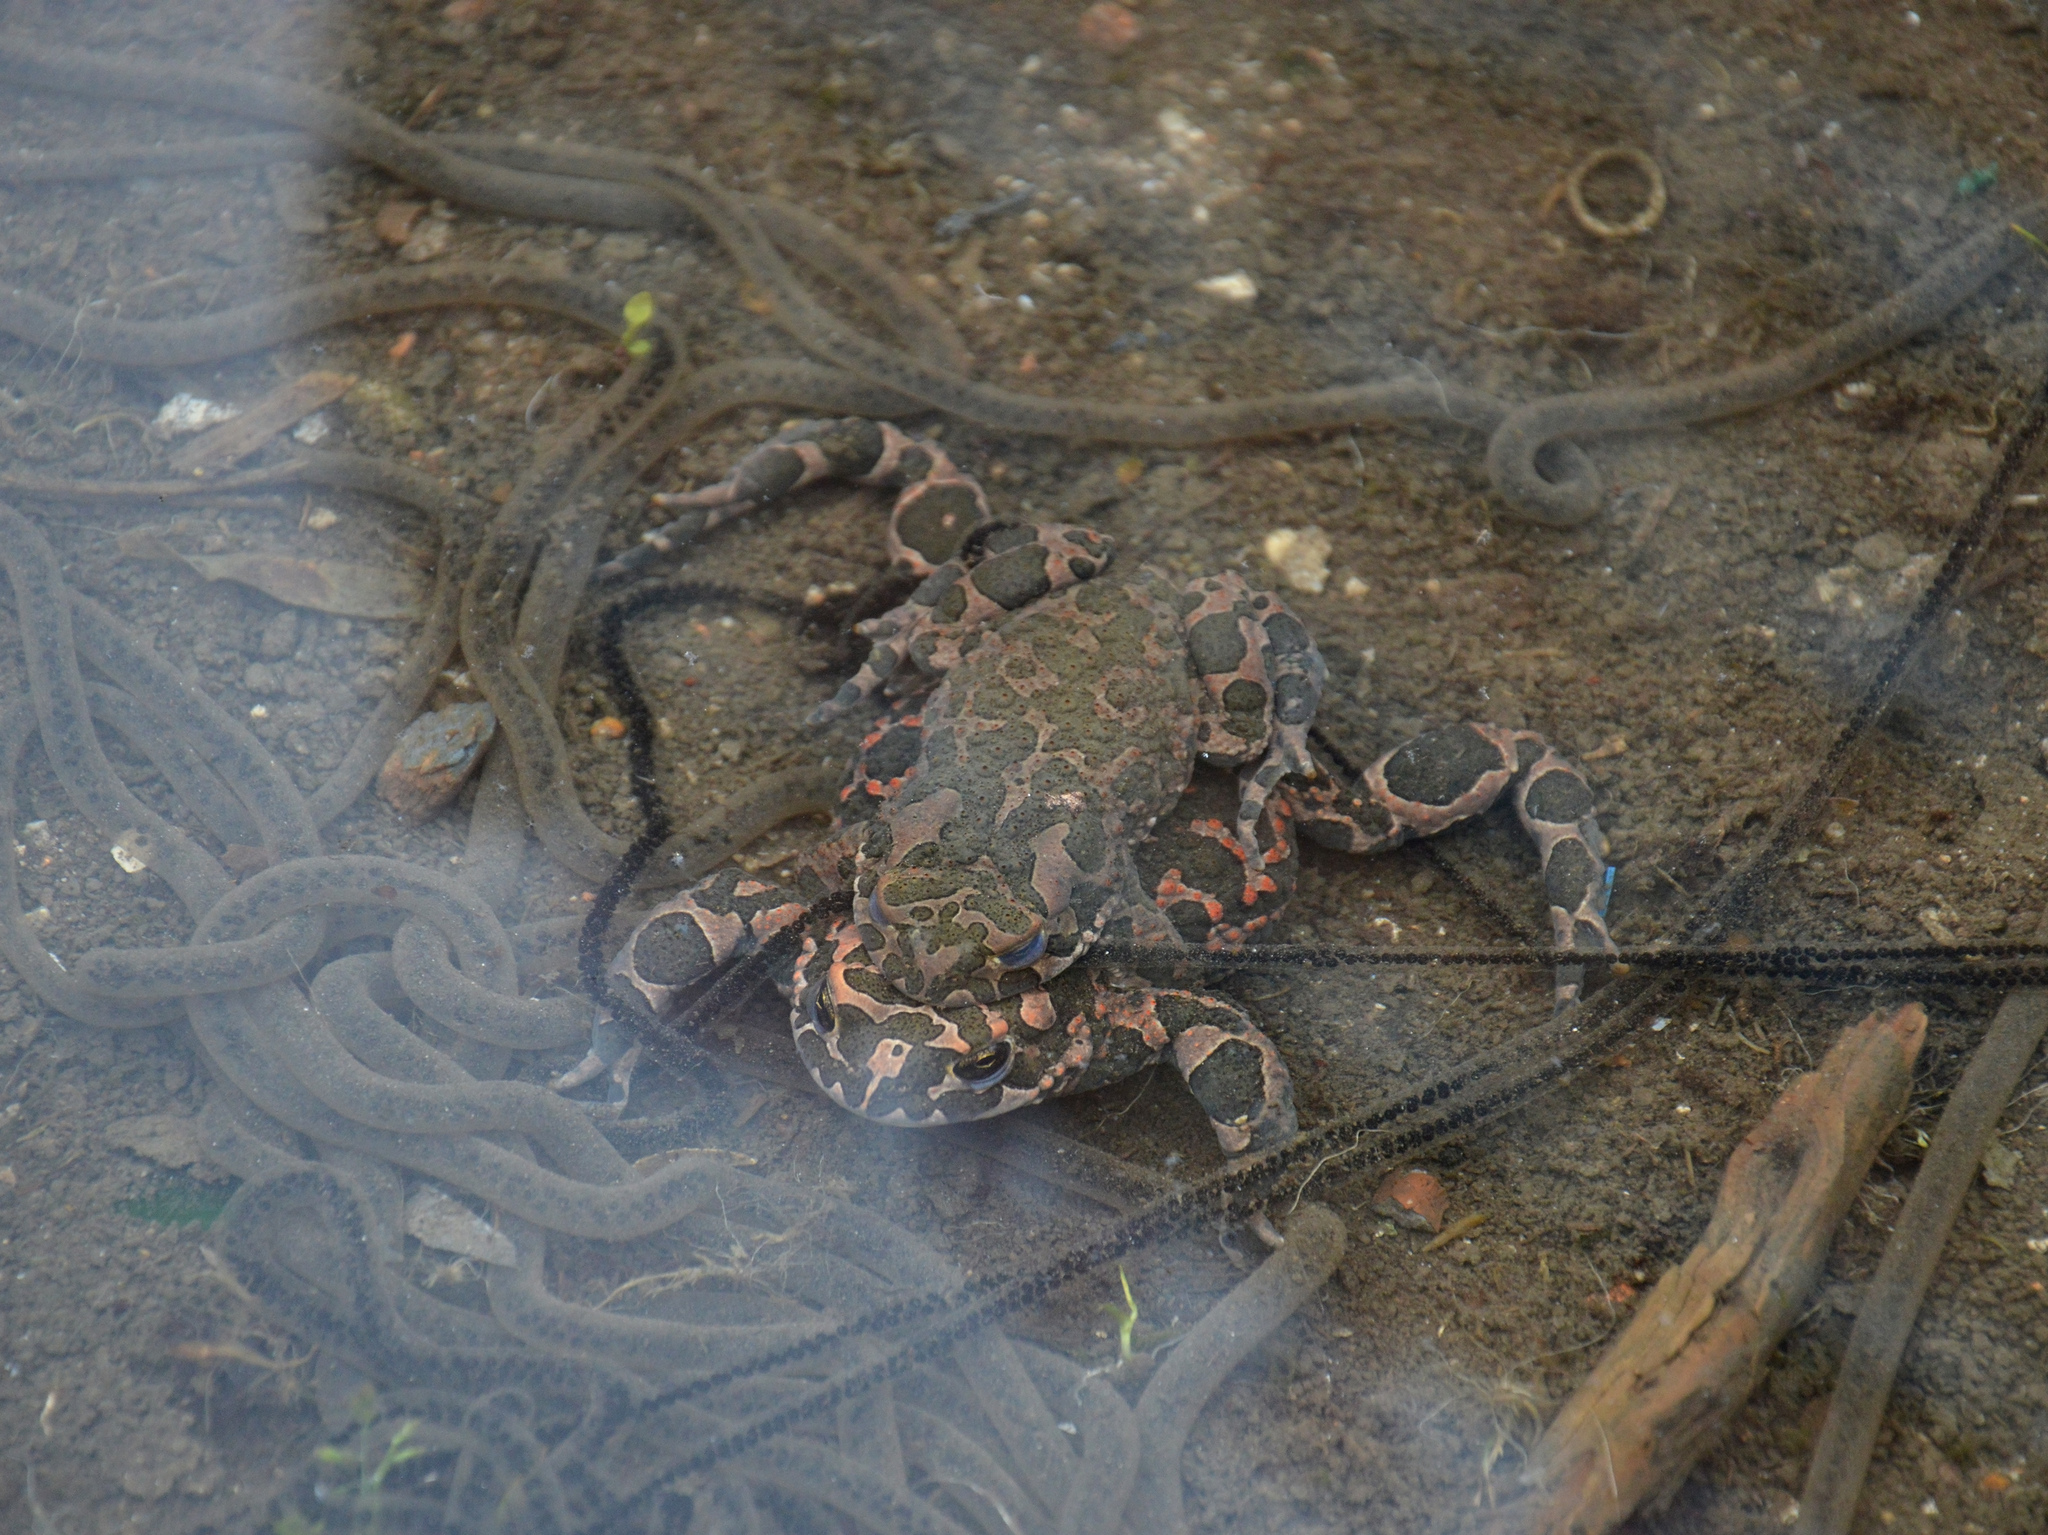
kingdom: Animalia
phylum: Chordata
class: Amphibia
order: Anura
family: Bufonidae
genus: Bufotes
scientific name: Bufotes viridis
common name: European green toad
